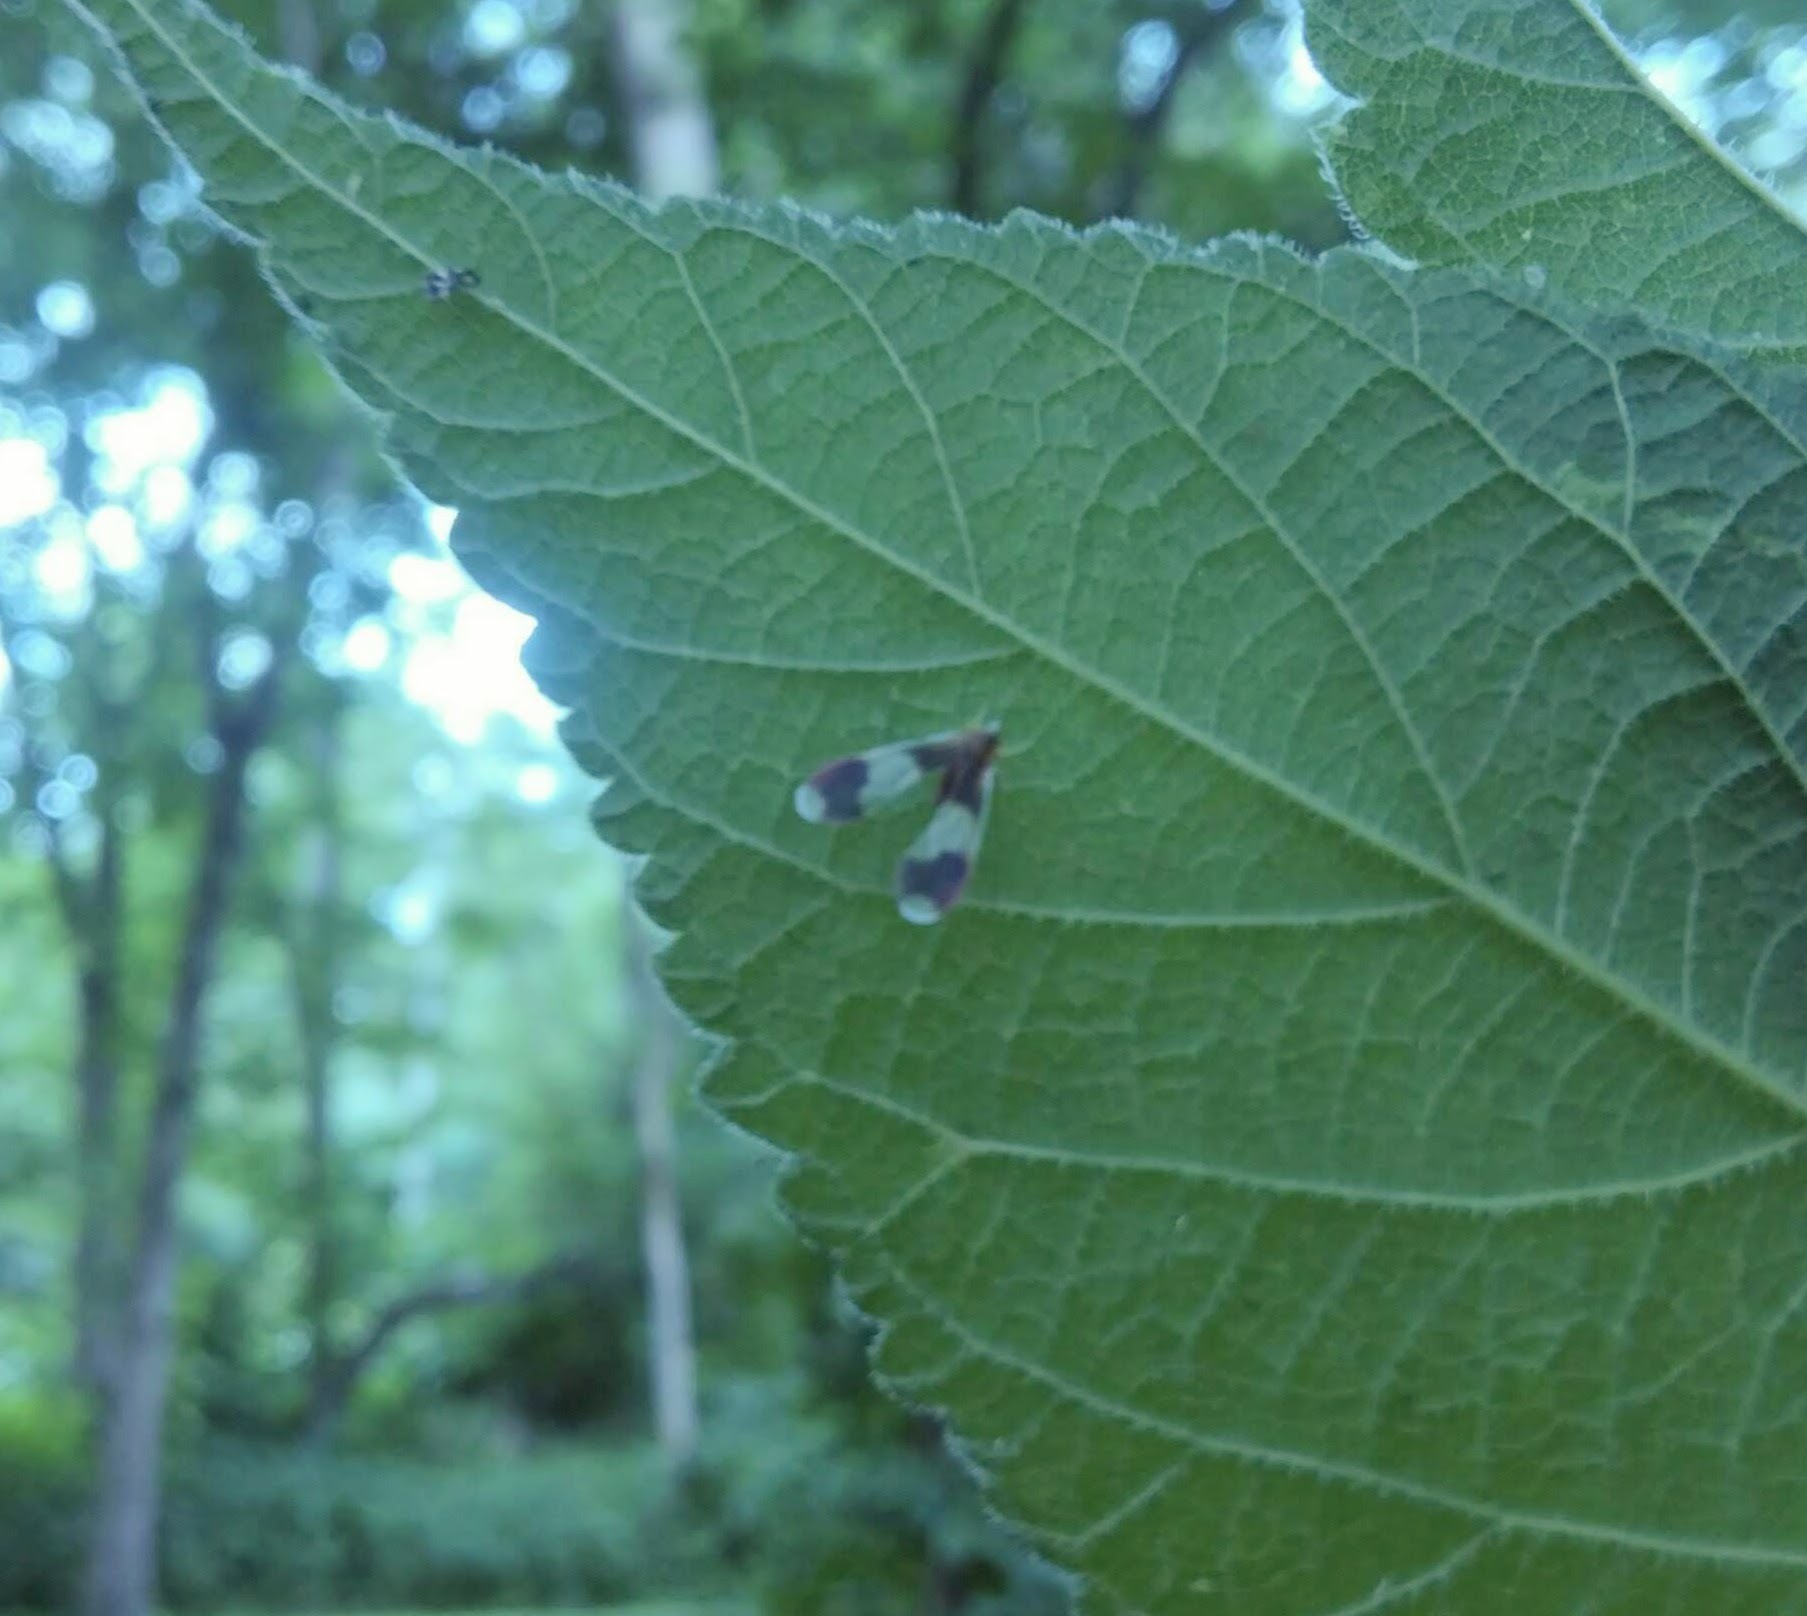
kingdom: Animalia
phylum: Arthropoda
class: Insecta
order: Hemiptera
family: Derbidae
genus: Anotia
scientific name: Anotia uhleri
